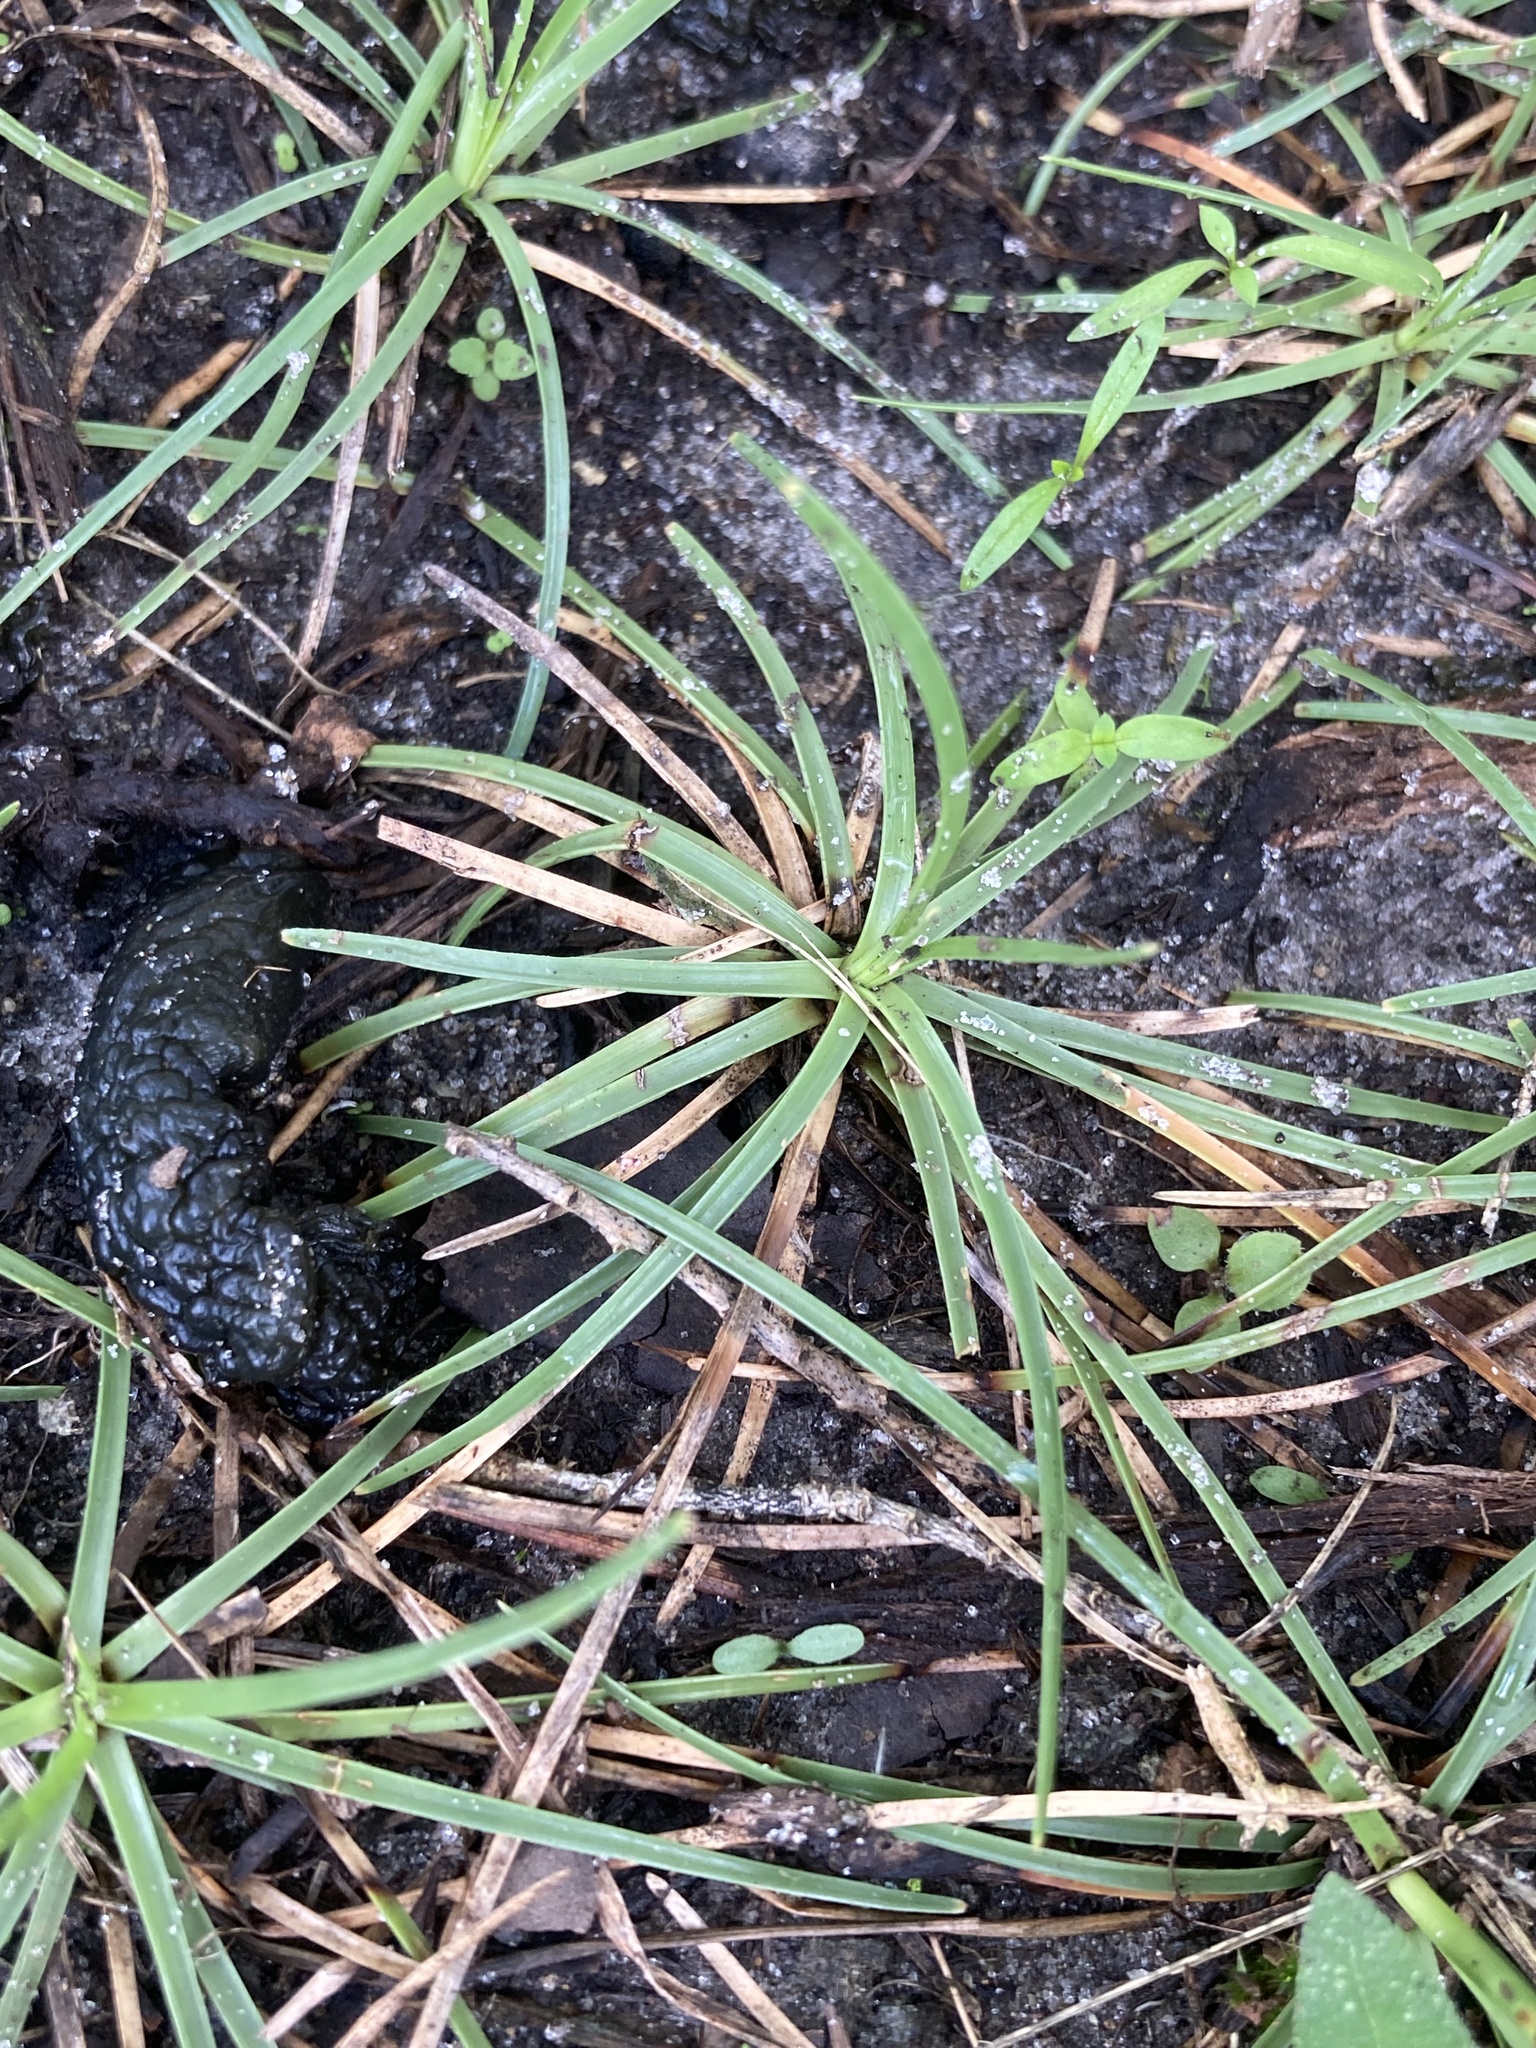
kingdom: Plantae
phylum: Tracheophyta
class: Liliopsida
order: Poales
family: Cyperaceae
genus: Fimbristylis
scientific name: Fimbristylis cymosa
